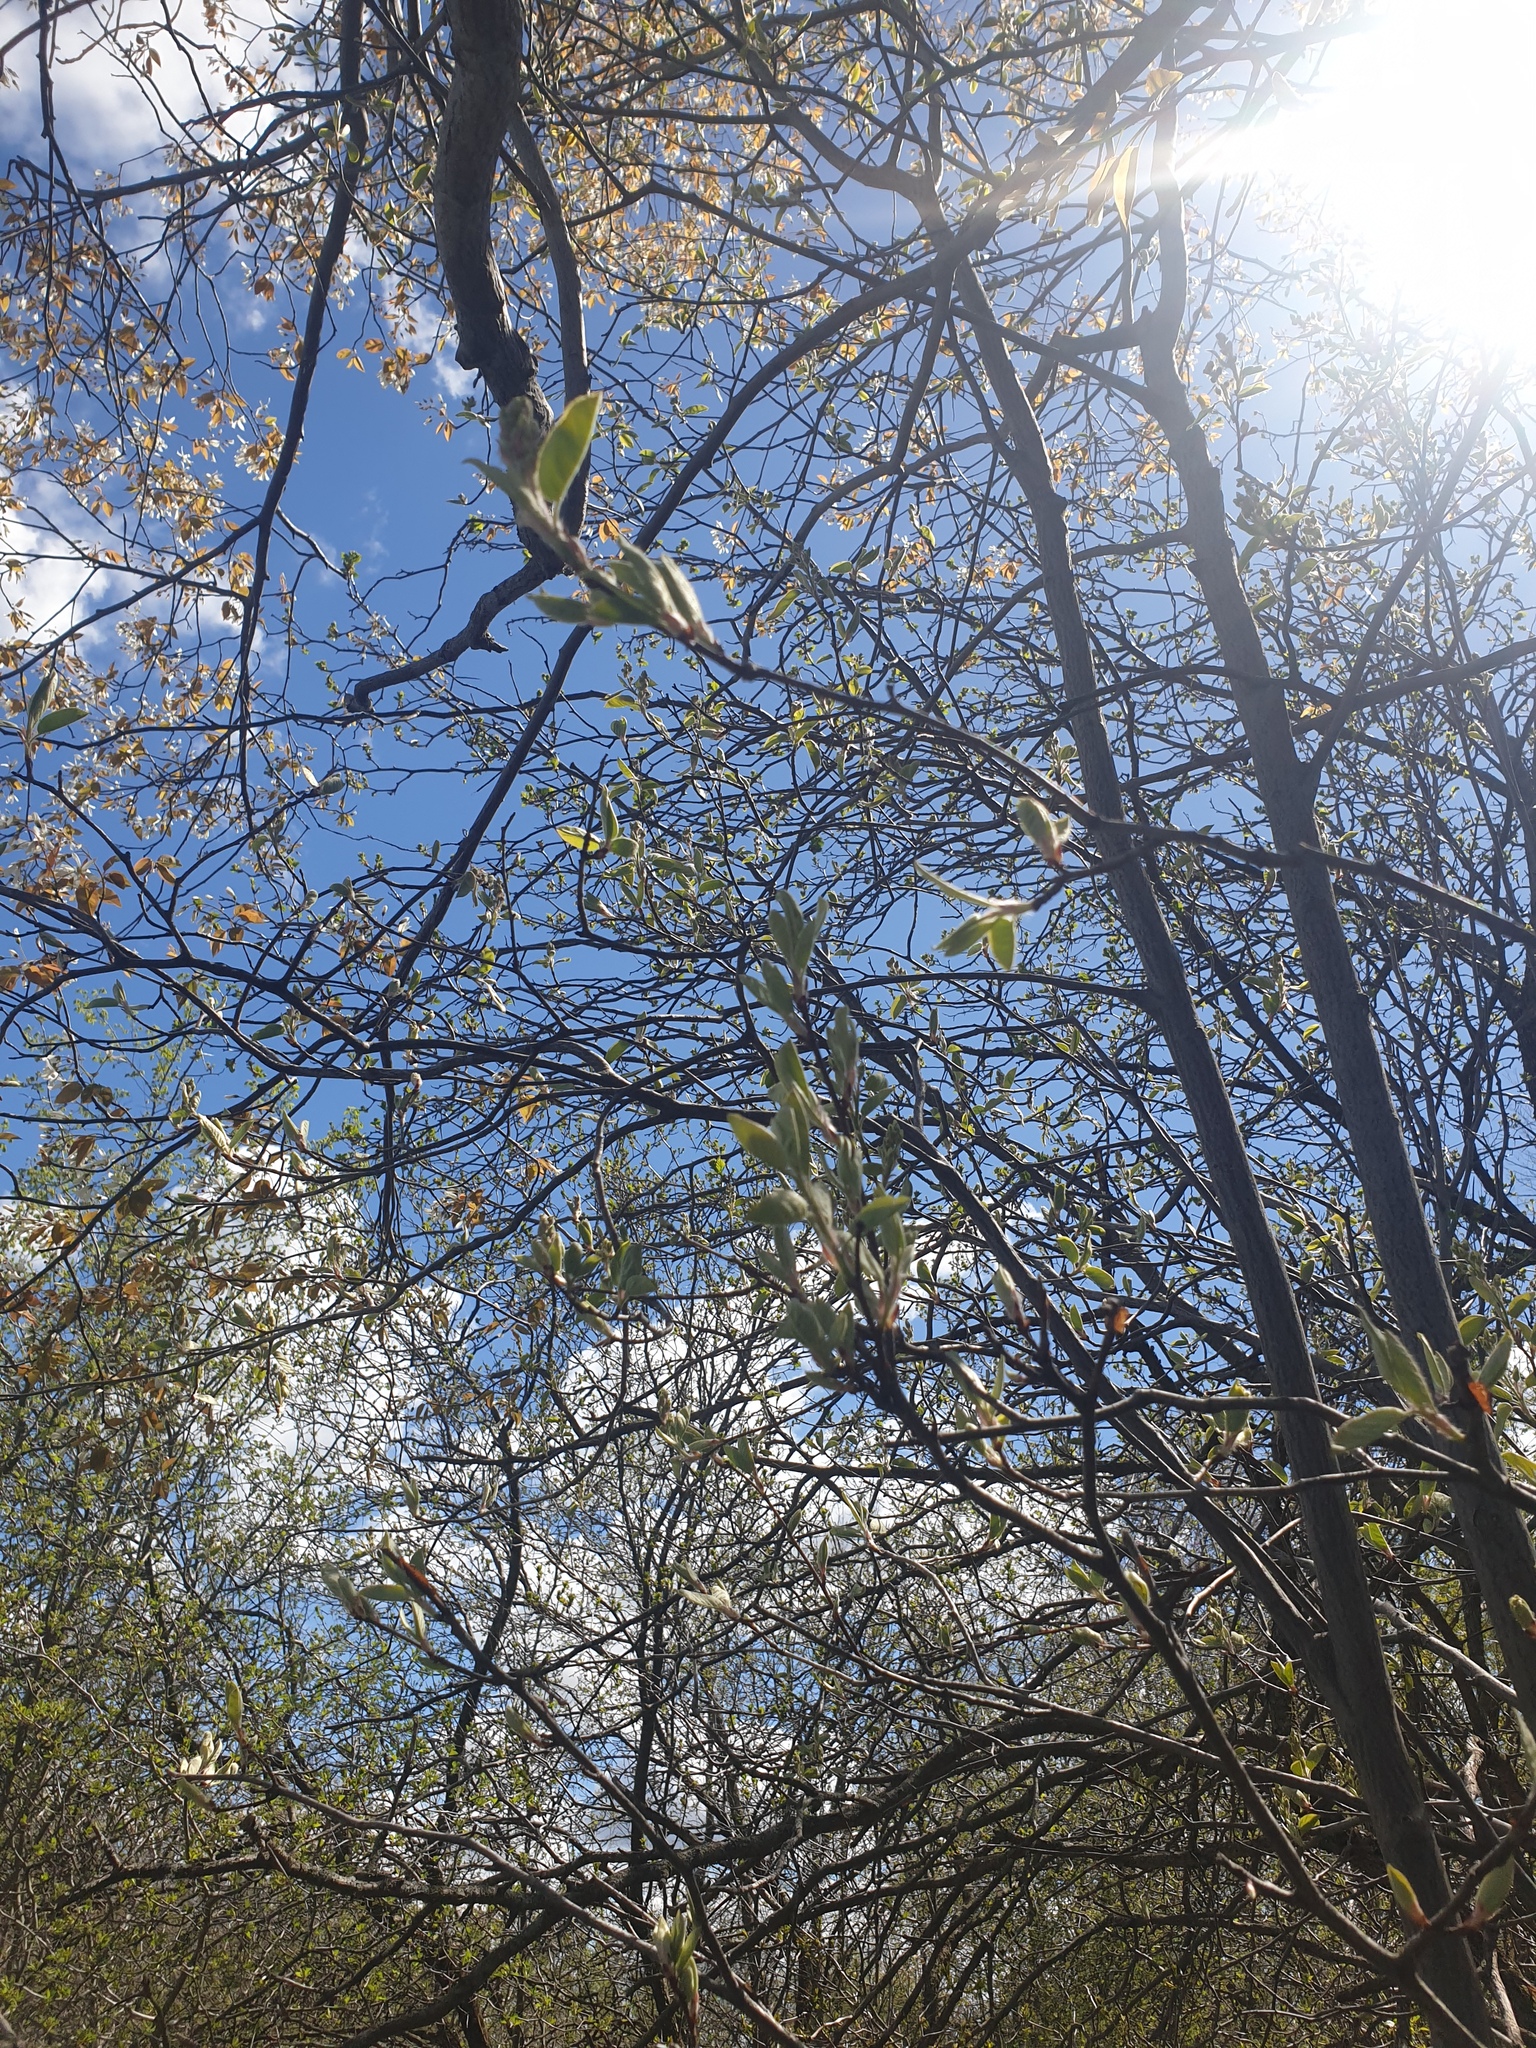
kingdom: Plantae
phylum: Tracheophyta
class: Magnoliopsida
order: Rosales
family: Rosaceae
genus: Amelanchier
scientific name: Amelanchier
